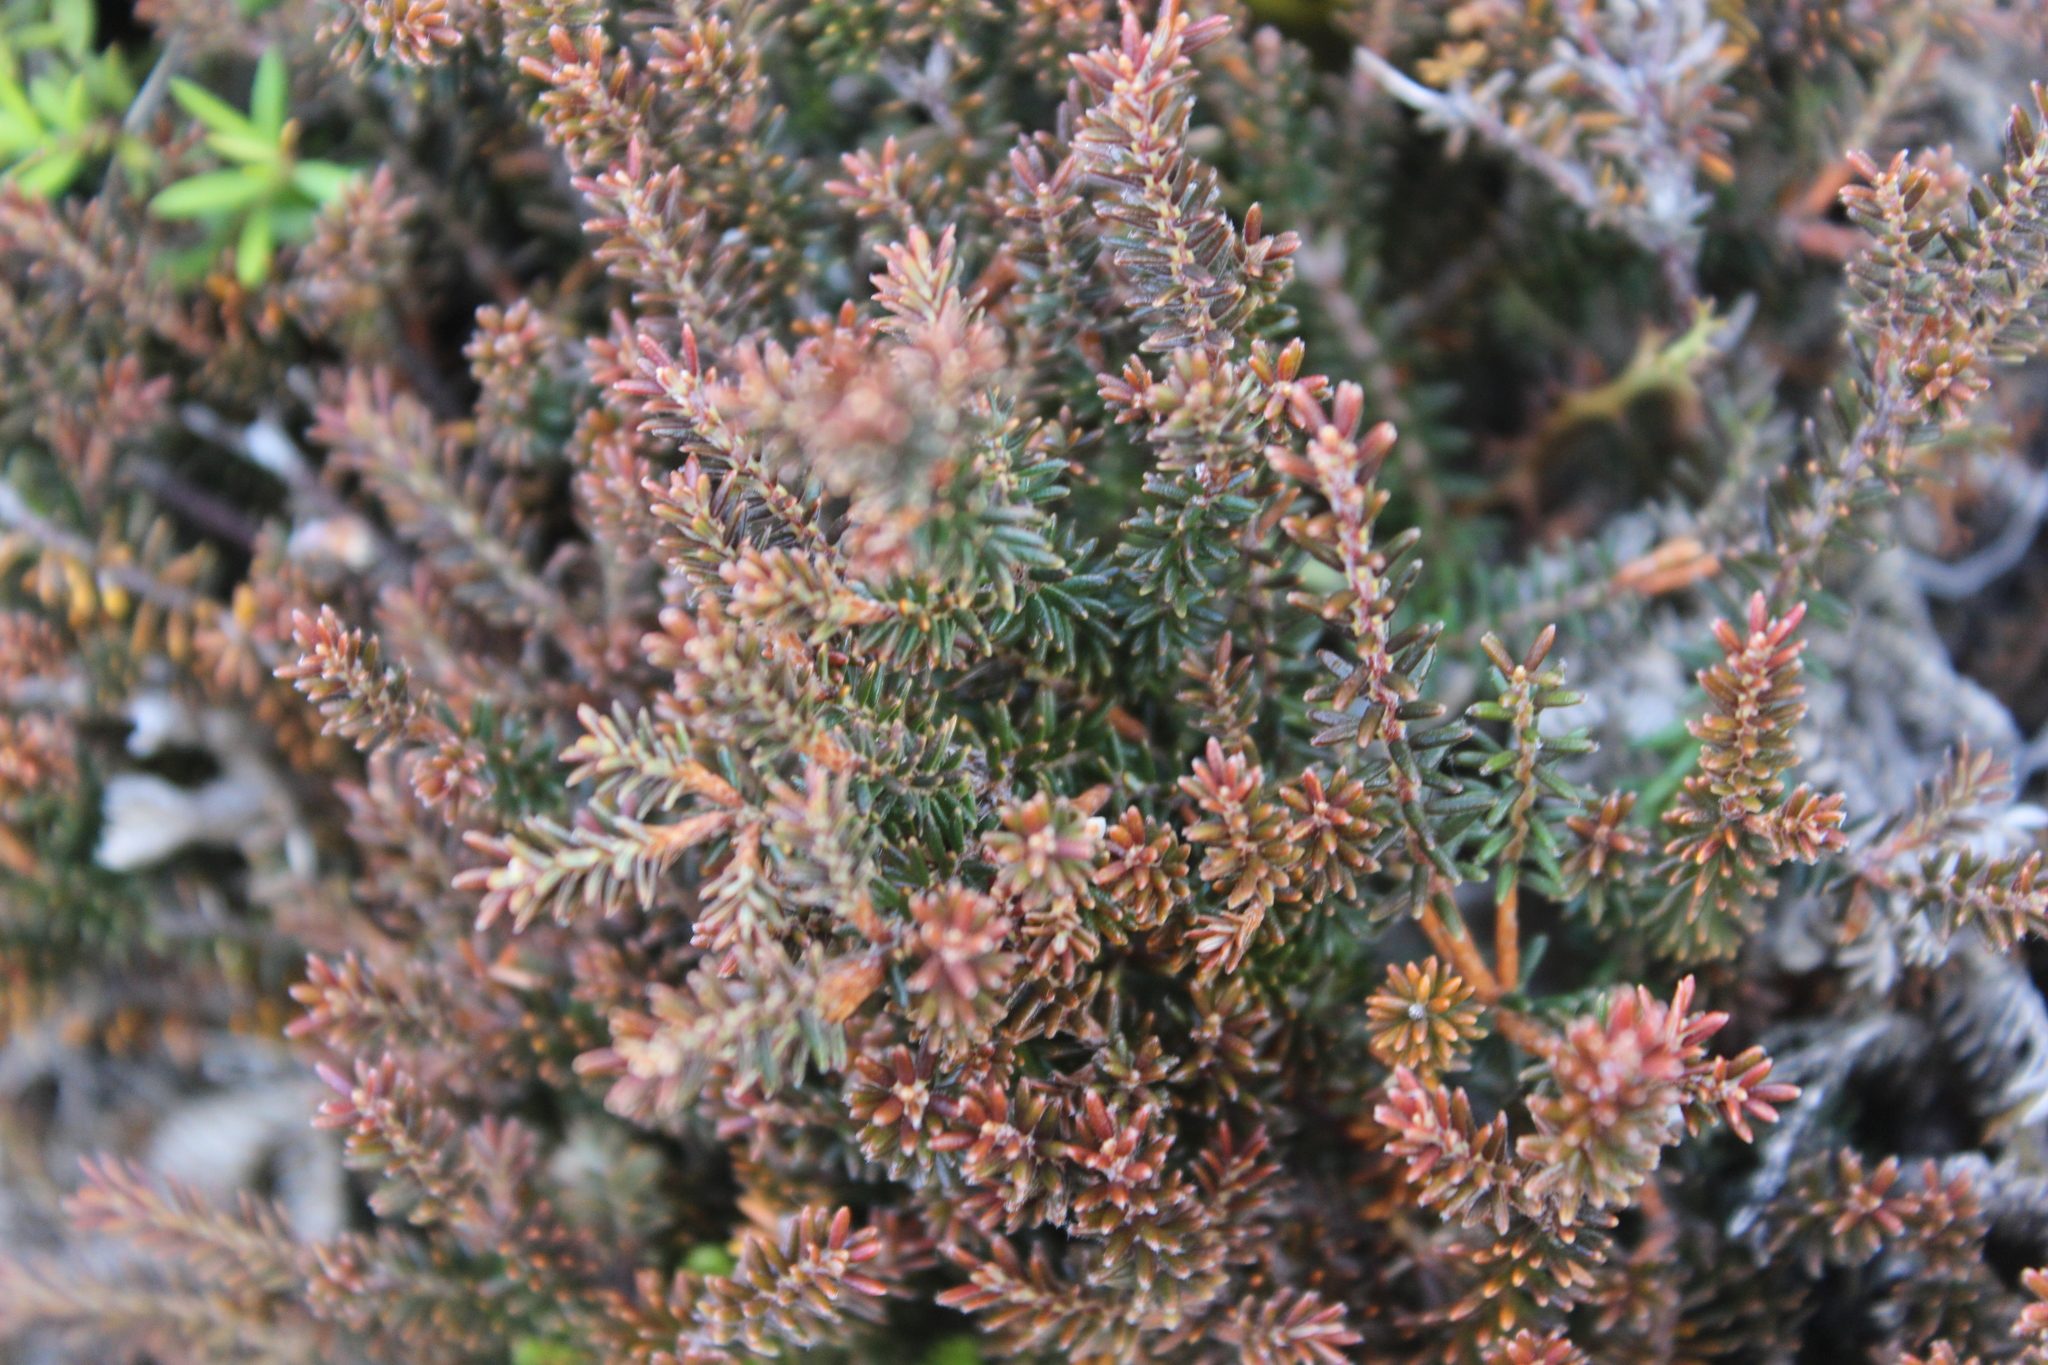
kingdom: Plantae
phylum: Tracheophyta
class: Magnoliopsida
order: Ericales
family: Ericaceae
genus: Androstoma
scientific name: Androstoma empetrifolia
